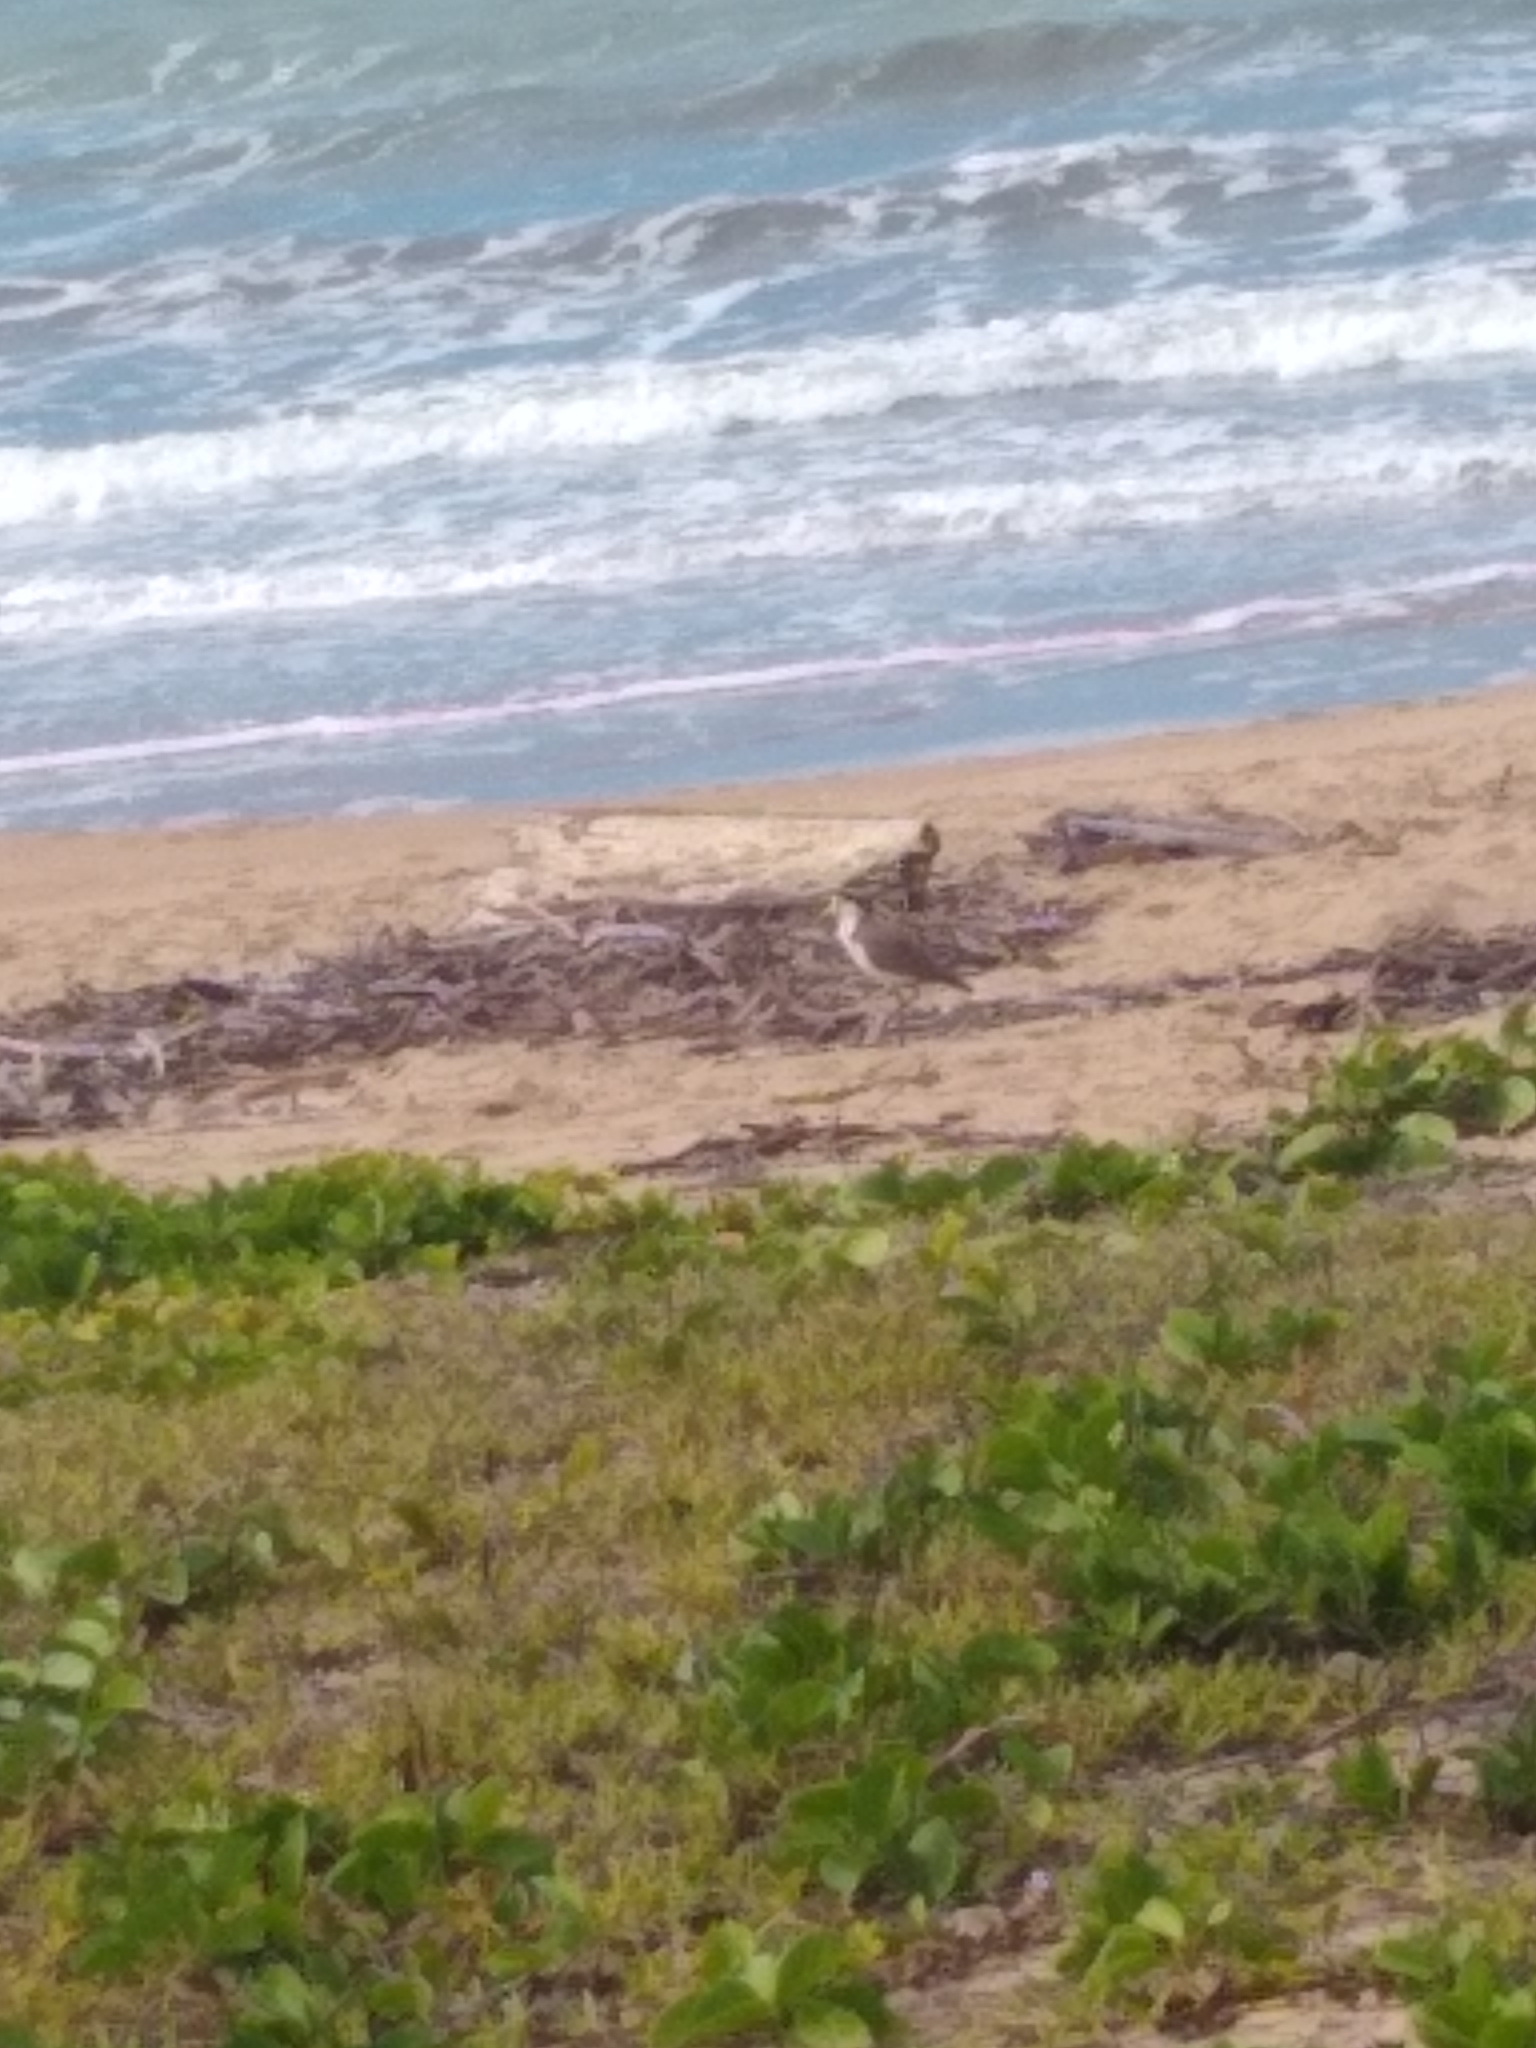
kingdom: Animalia
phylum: Chordata
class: Aves
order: Charadriiformes
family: Charadriidae
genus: Vanellus
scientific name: Vanellus miles
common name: Masked lapwing
